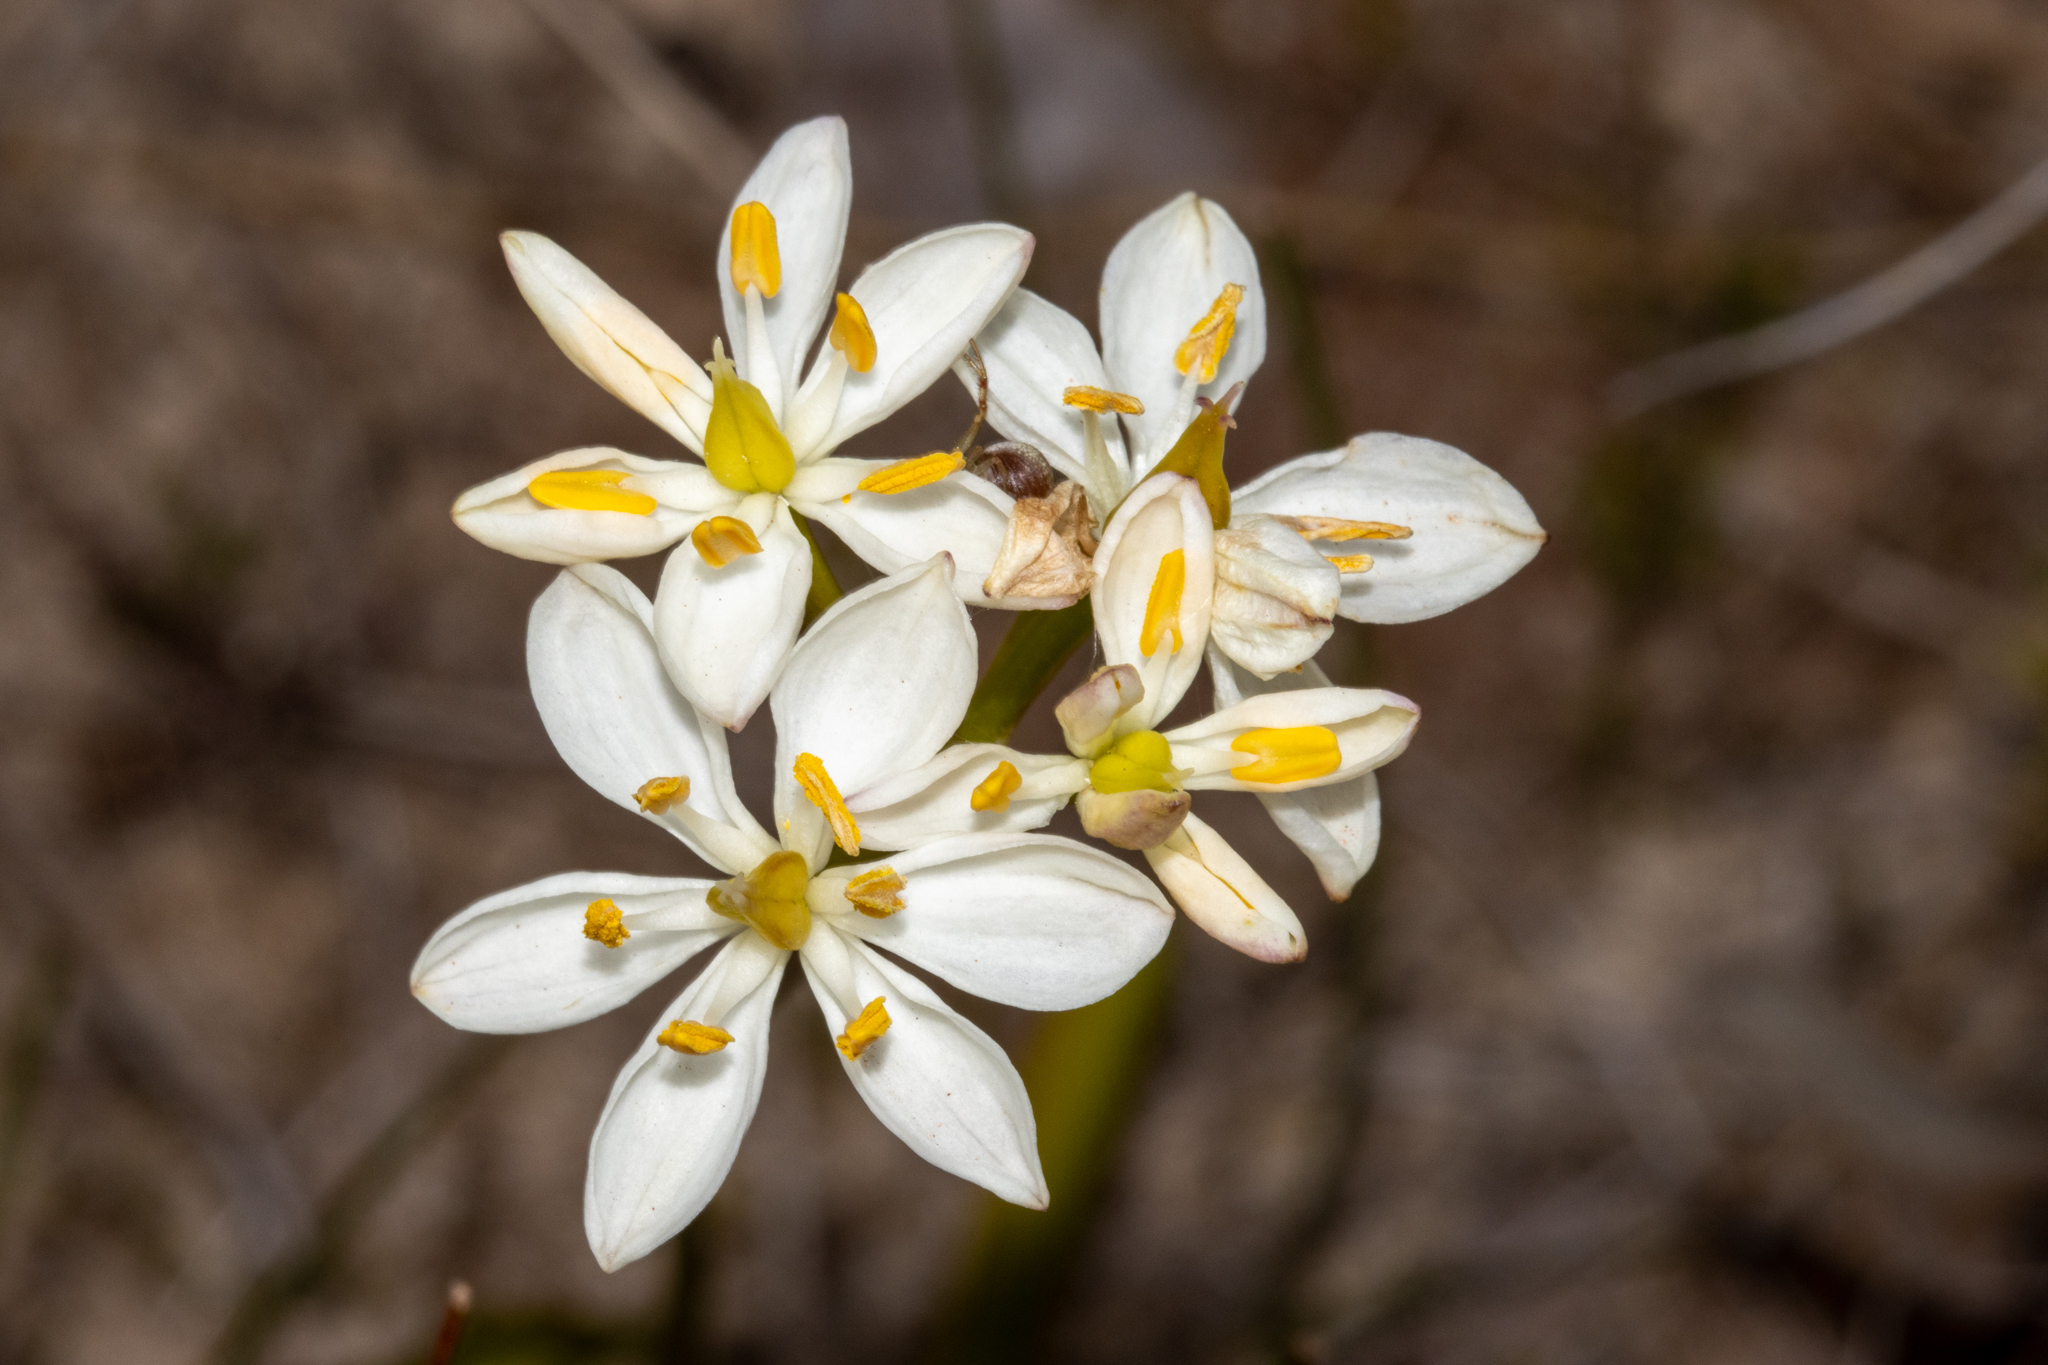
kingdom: Plantae
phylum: Tracheophyta
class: Liliopsida
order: Liliales
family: Colchicaceae
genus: Burchardia
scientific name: Burchardia congesta
